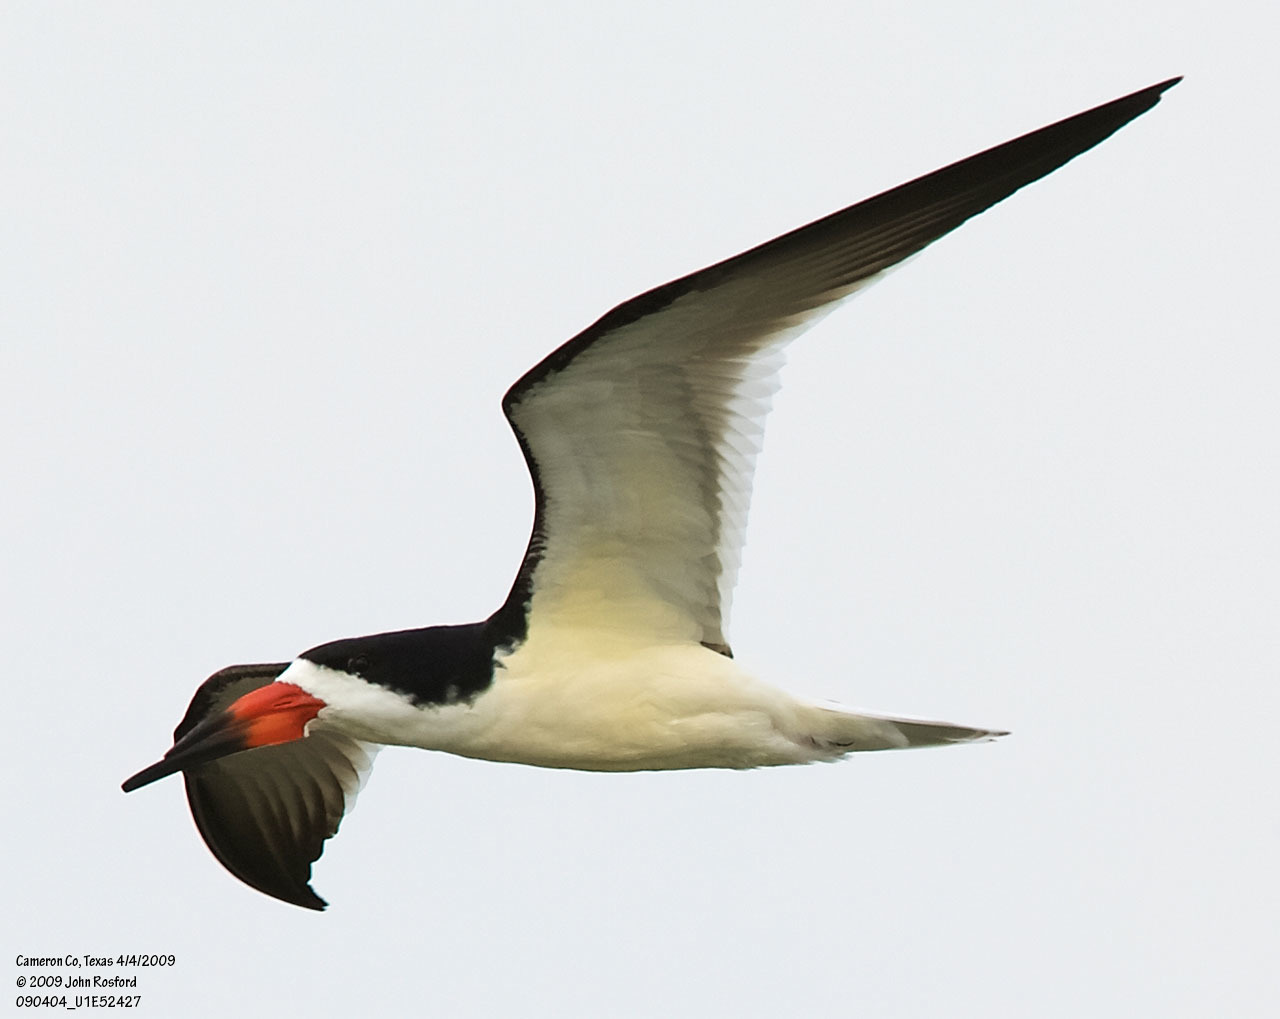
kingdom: Animalia
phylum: Chordata
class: Aves
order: Charadriiformes
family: Laridae
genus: Rynchops
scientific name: Rynchops niger
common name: Black skimmer
